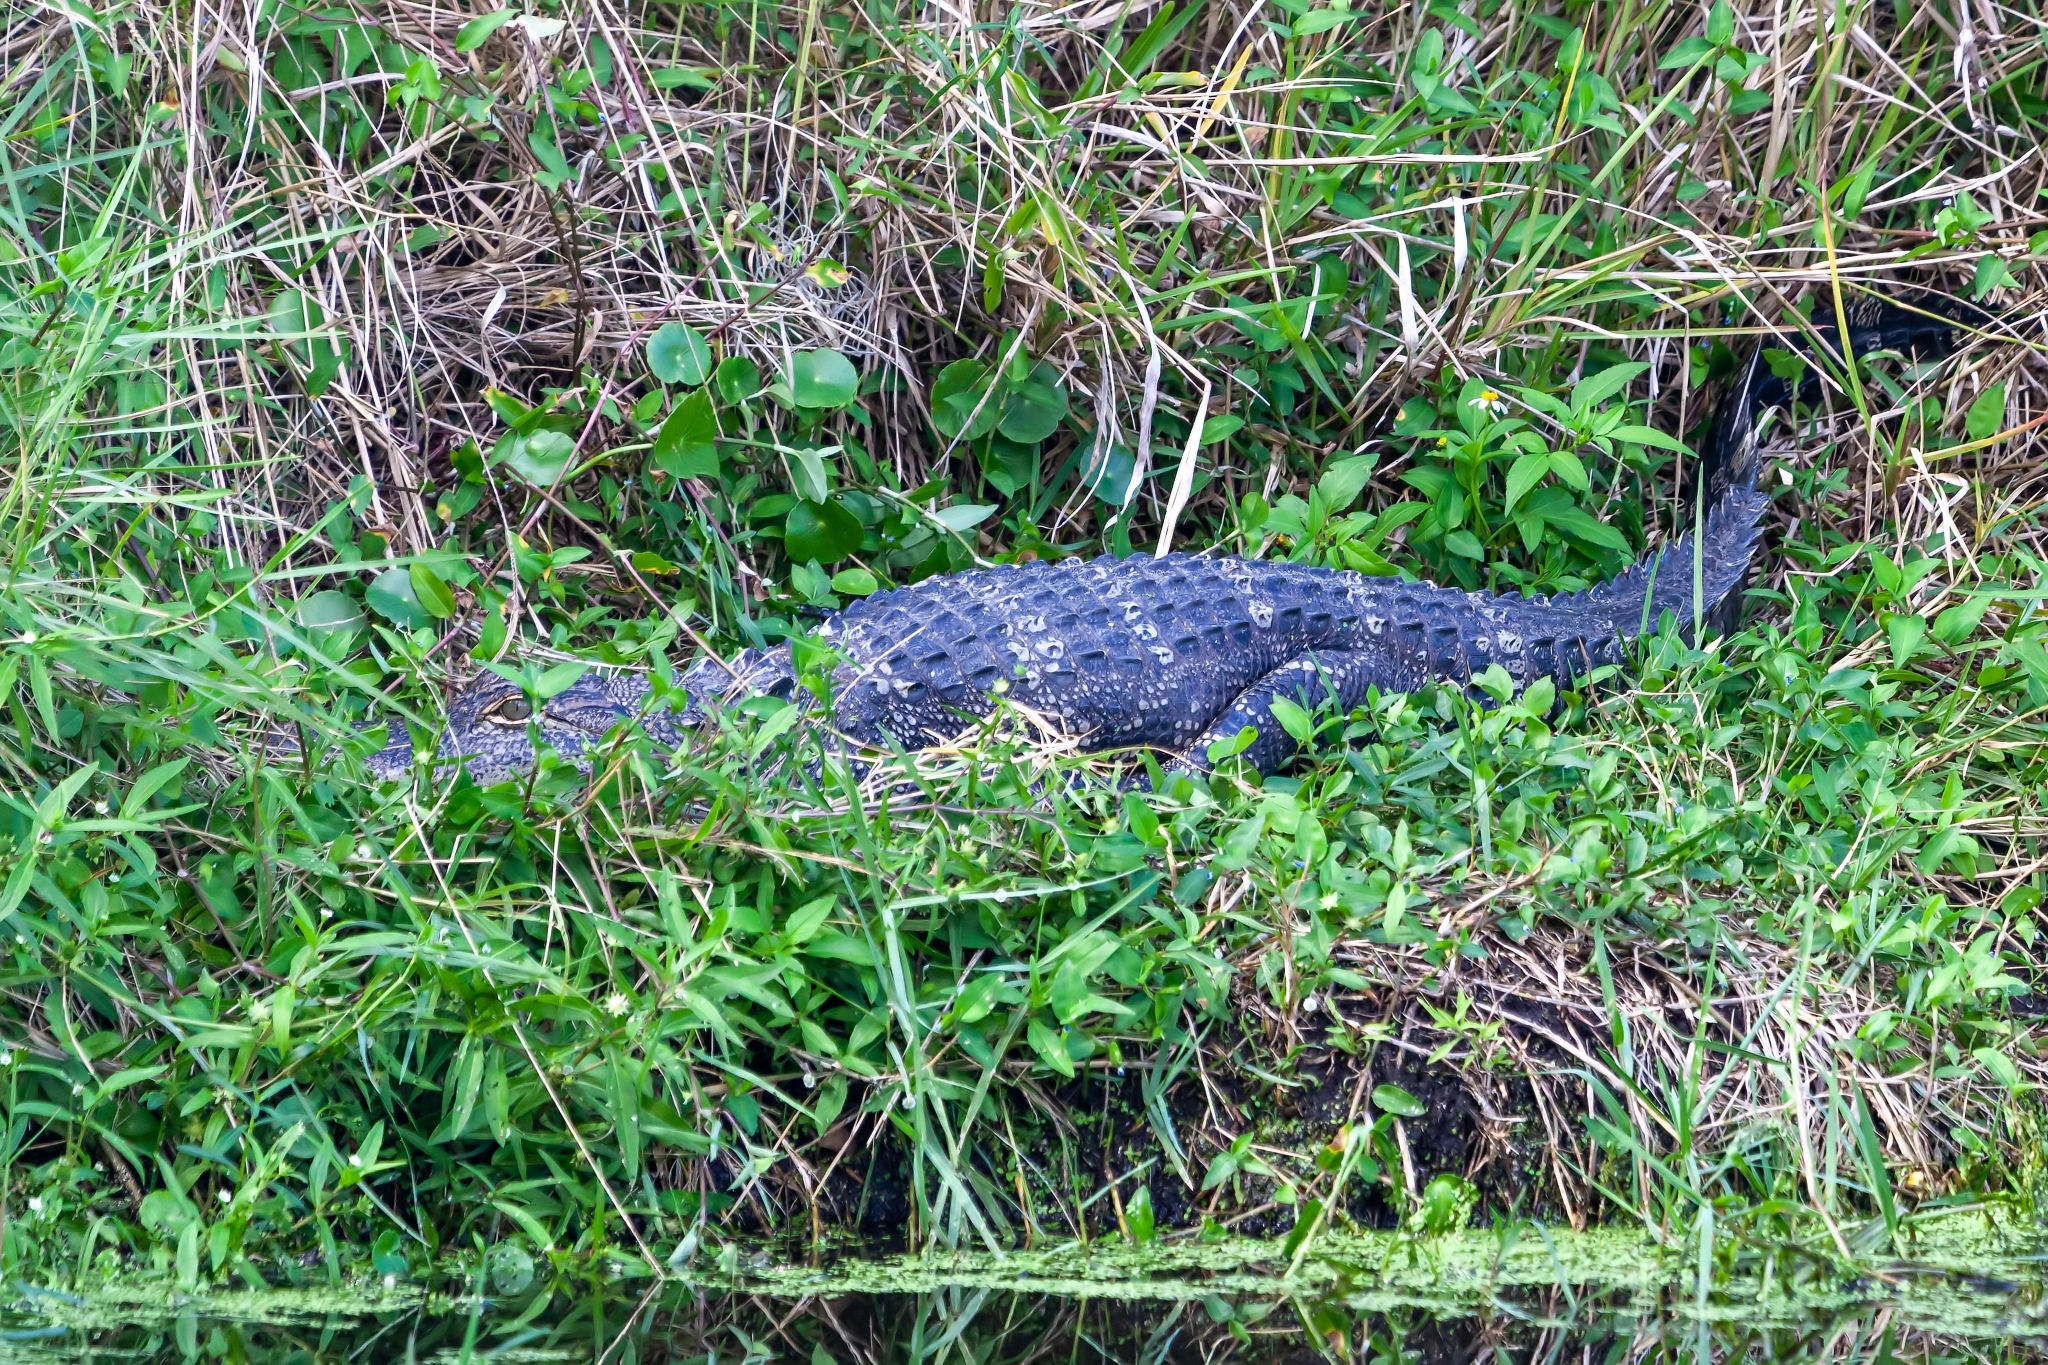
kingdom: Animalia
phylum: Chordata
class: Crocodylia
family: Alligatoridae
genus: Alligator
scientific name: Alligator mississippiensis
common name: American alligator
